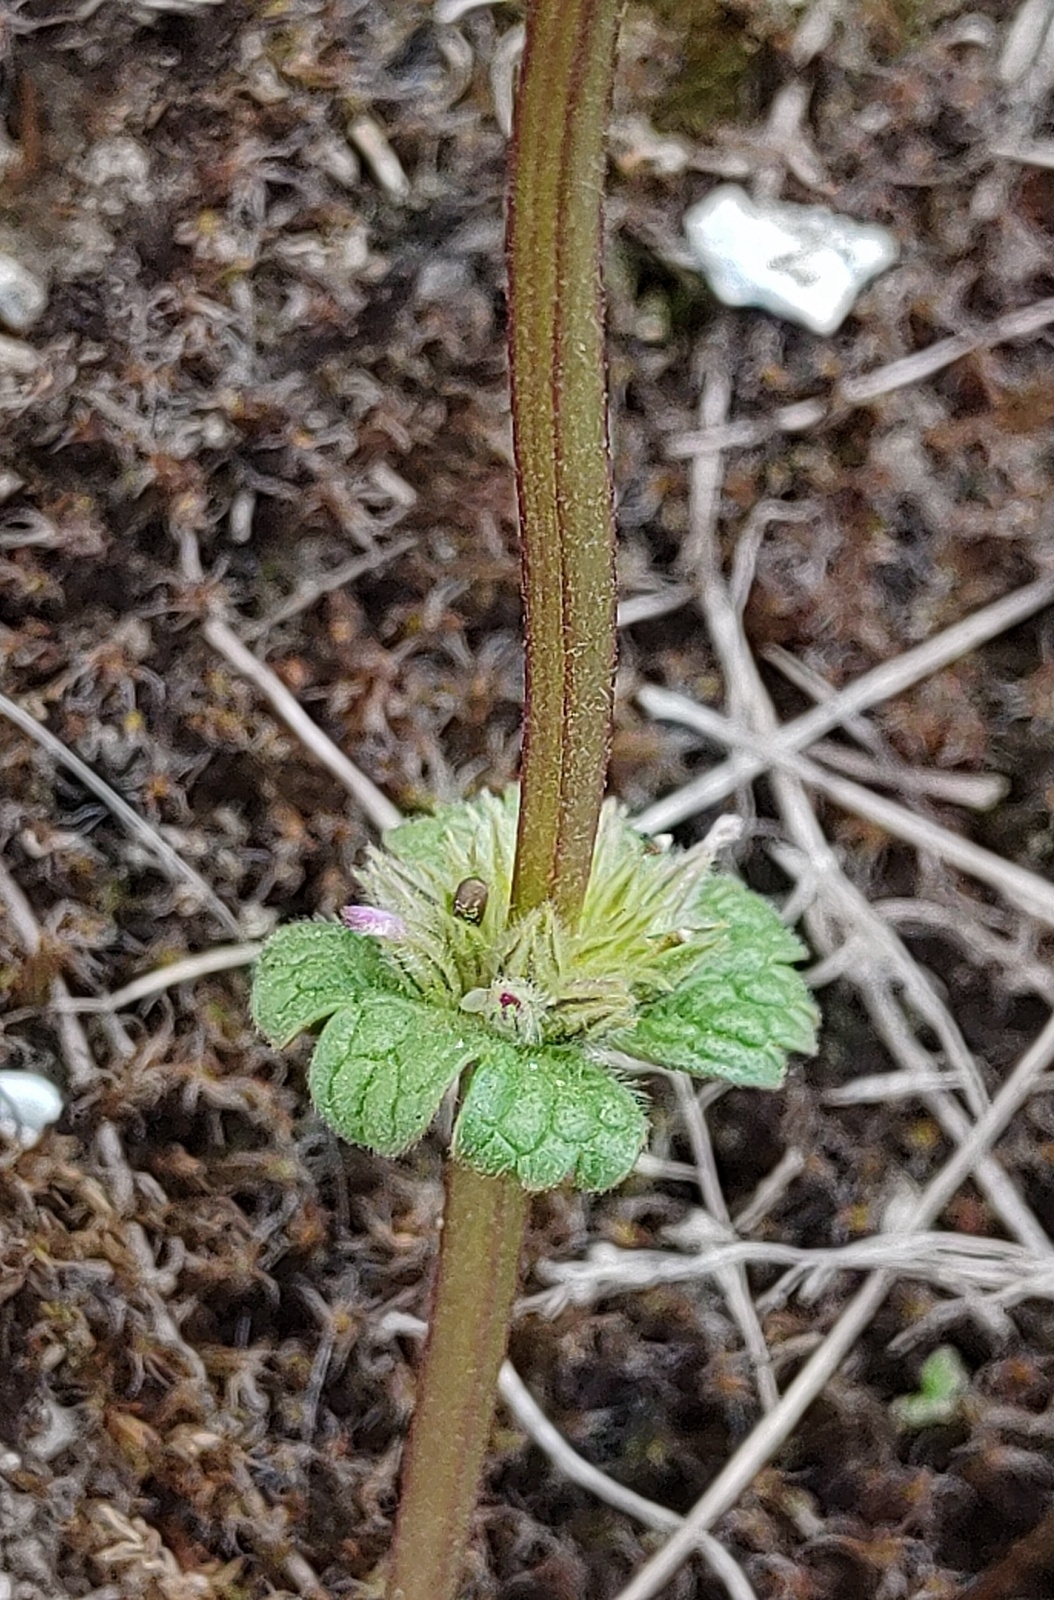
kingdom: Plantae
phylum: Tracheophyta
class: Magnoliopsida
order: Lamiales
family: Lamiaceae
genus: Lamium
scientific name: Lamium amplexicaule
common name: Henbit dead-nettle
